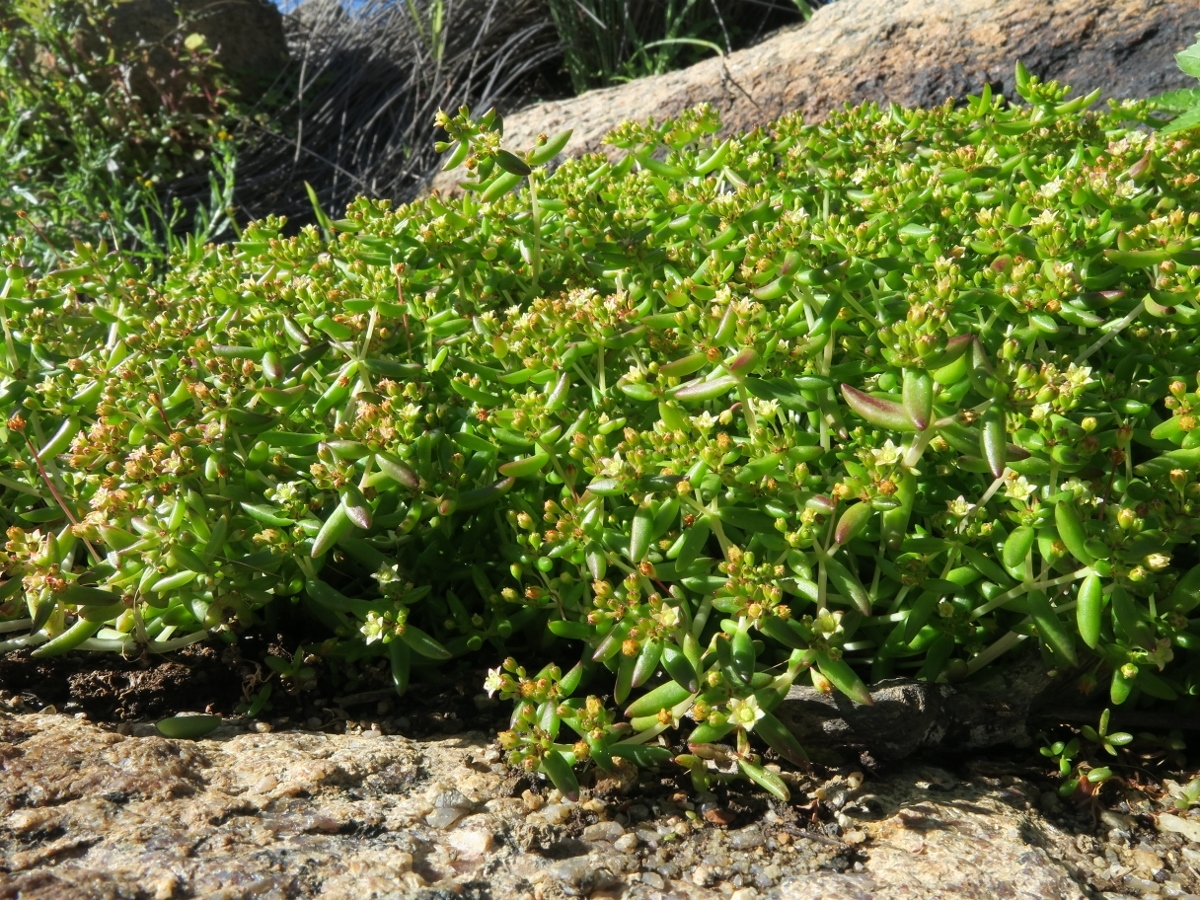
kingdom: Plantae
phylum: Tracheophyta
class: Magnoliopsida
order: Saxifragales
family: Crassulaceae
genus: Crassula
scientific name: Crassula expansa
